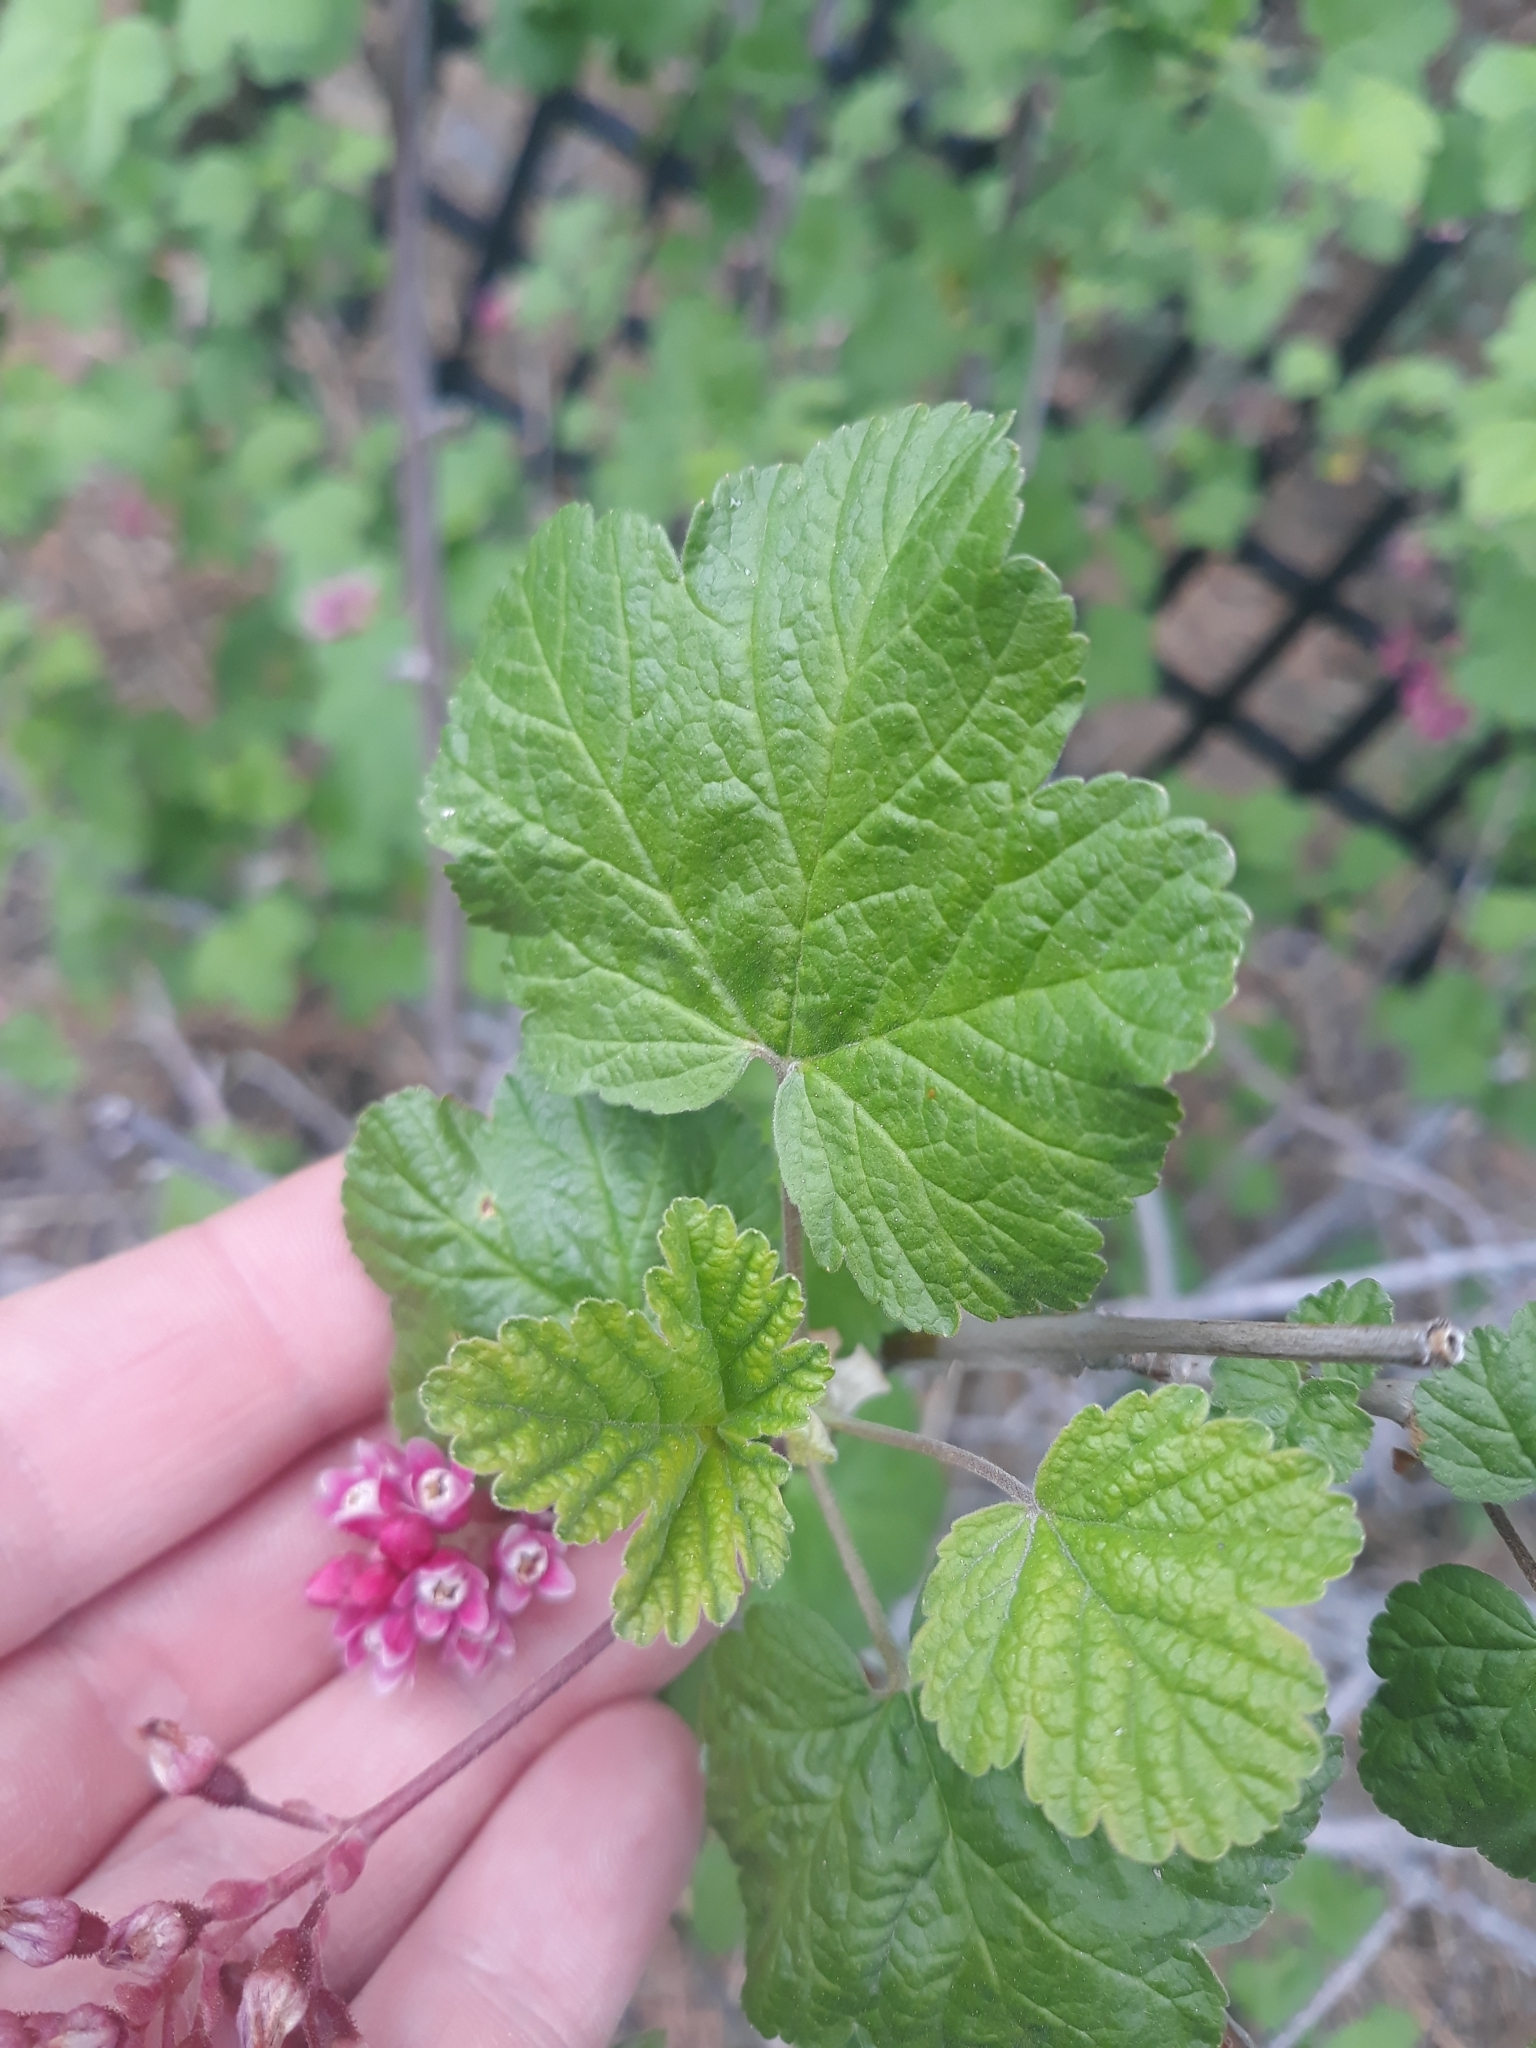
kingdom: Plantae
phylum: Tracheophyta
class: Magnoliopsida
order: Saxifragales
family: Grossulariaceae
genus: Ribes
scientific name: Ribes nevadense
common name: Mountain pink currant
